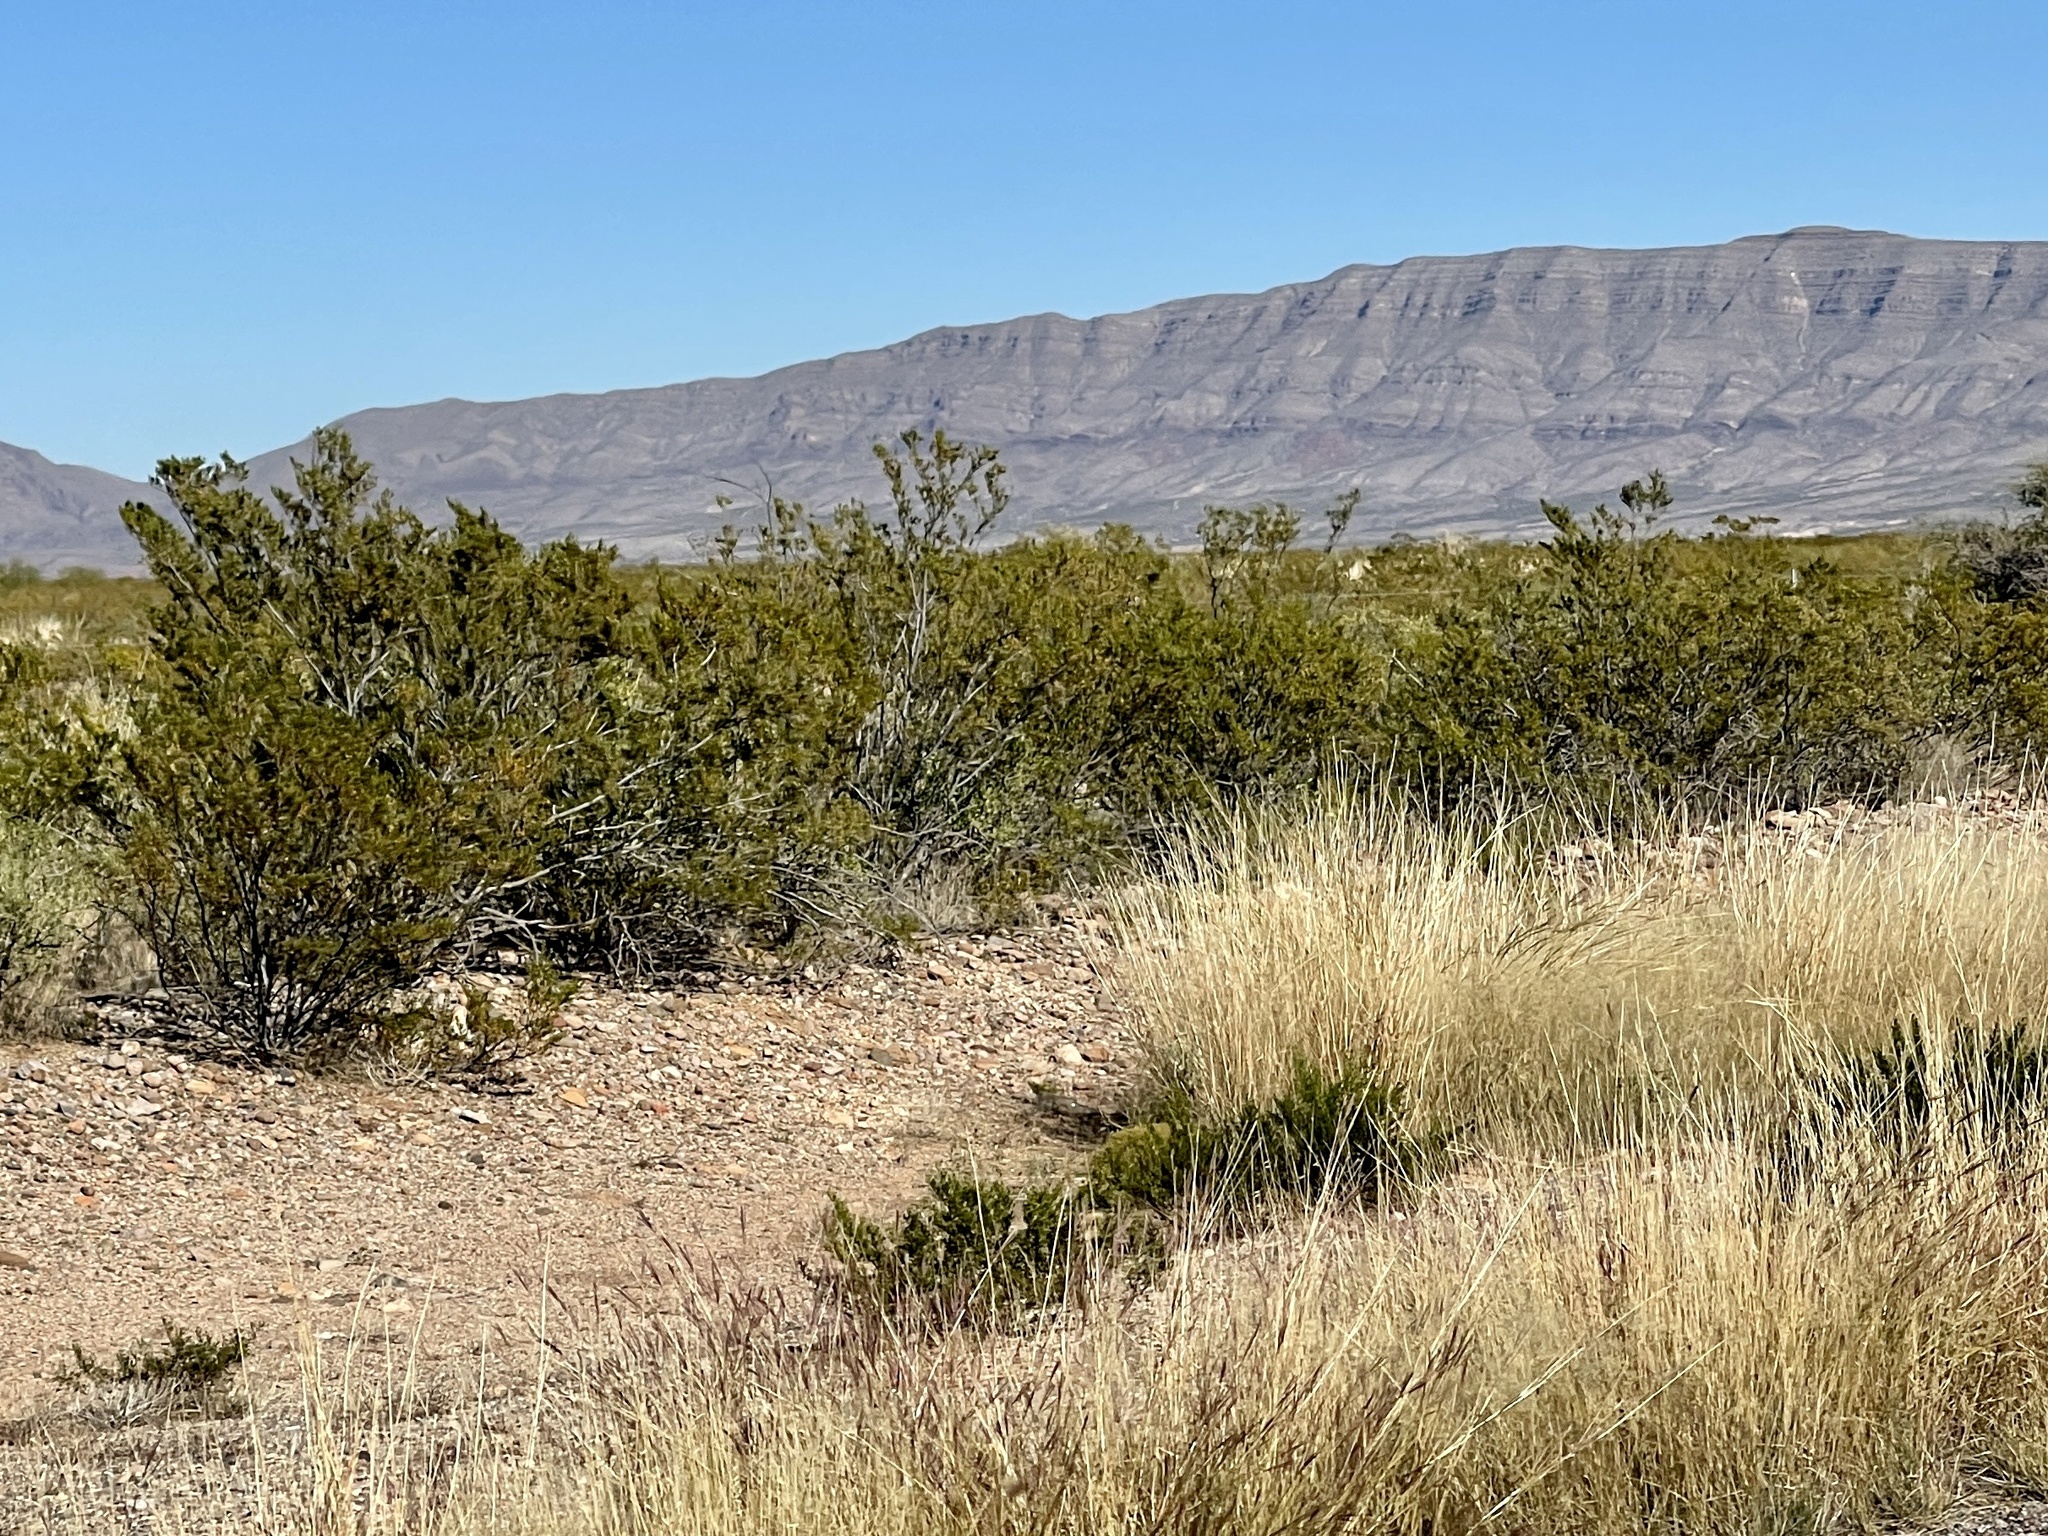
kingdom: Plantae
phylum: Tracheophyta
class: Magnoliopsida
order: Zygophyllales
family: Zygophyllaceae
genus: Larrea
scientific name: Larrea tridentata
